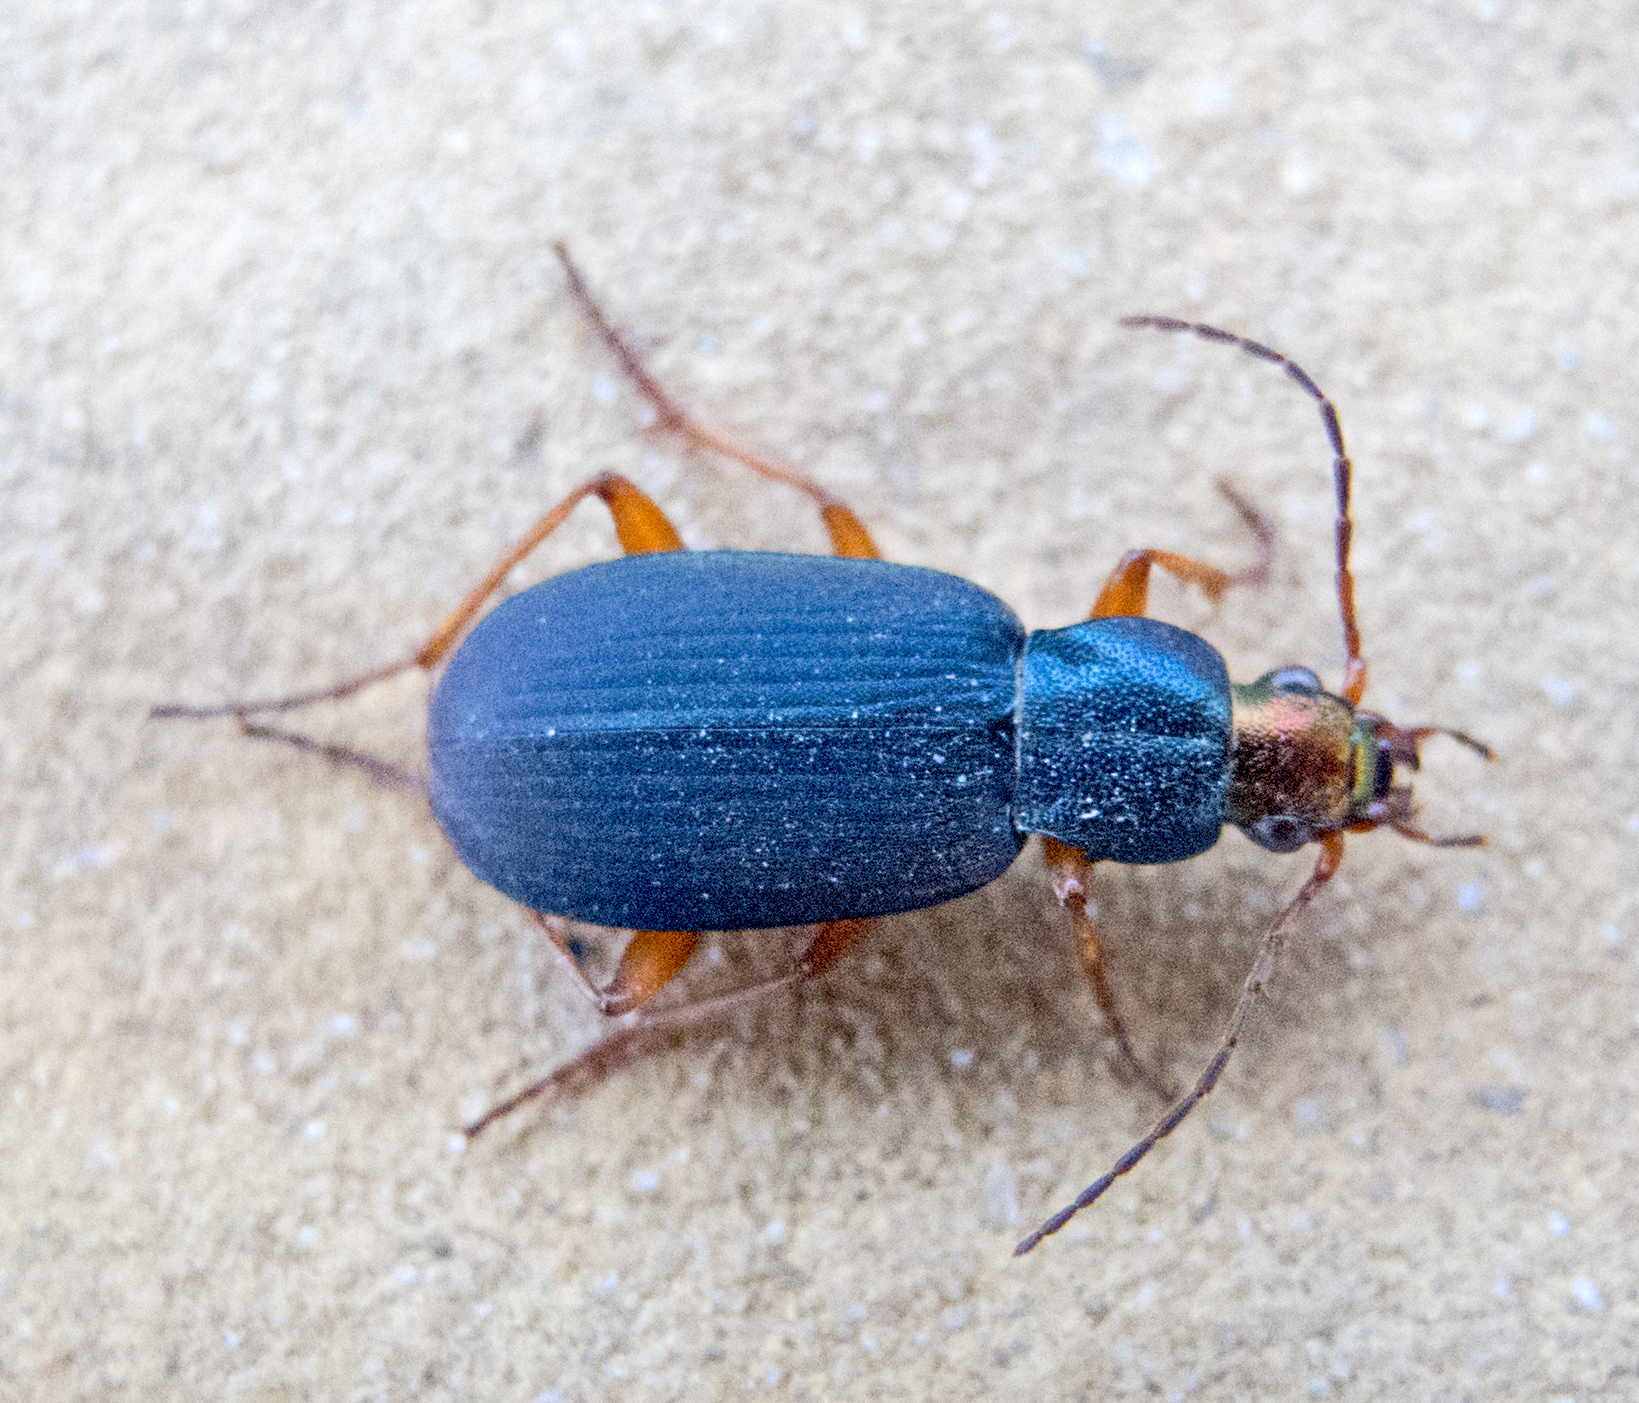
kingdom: Animalia
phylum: Arthropoda
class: Insecta
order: Coleoptera
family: Carabidae
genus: Chlaenius
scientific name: Chlaenius aeneocephalus
